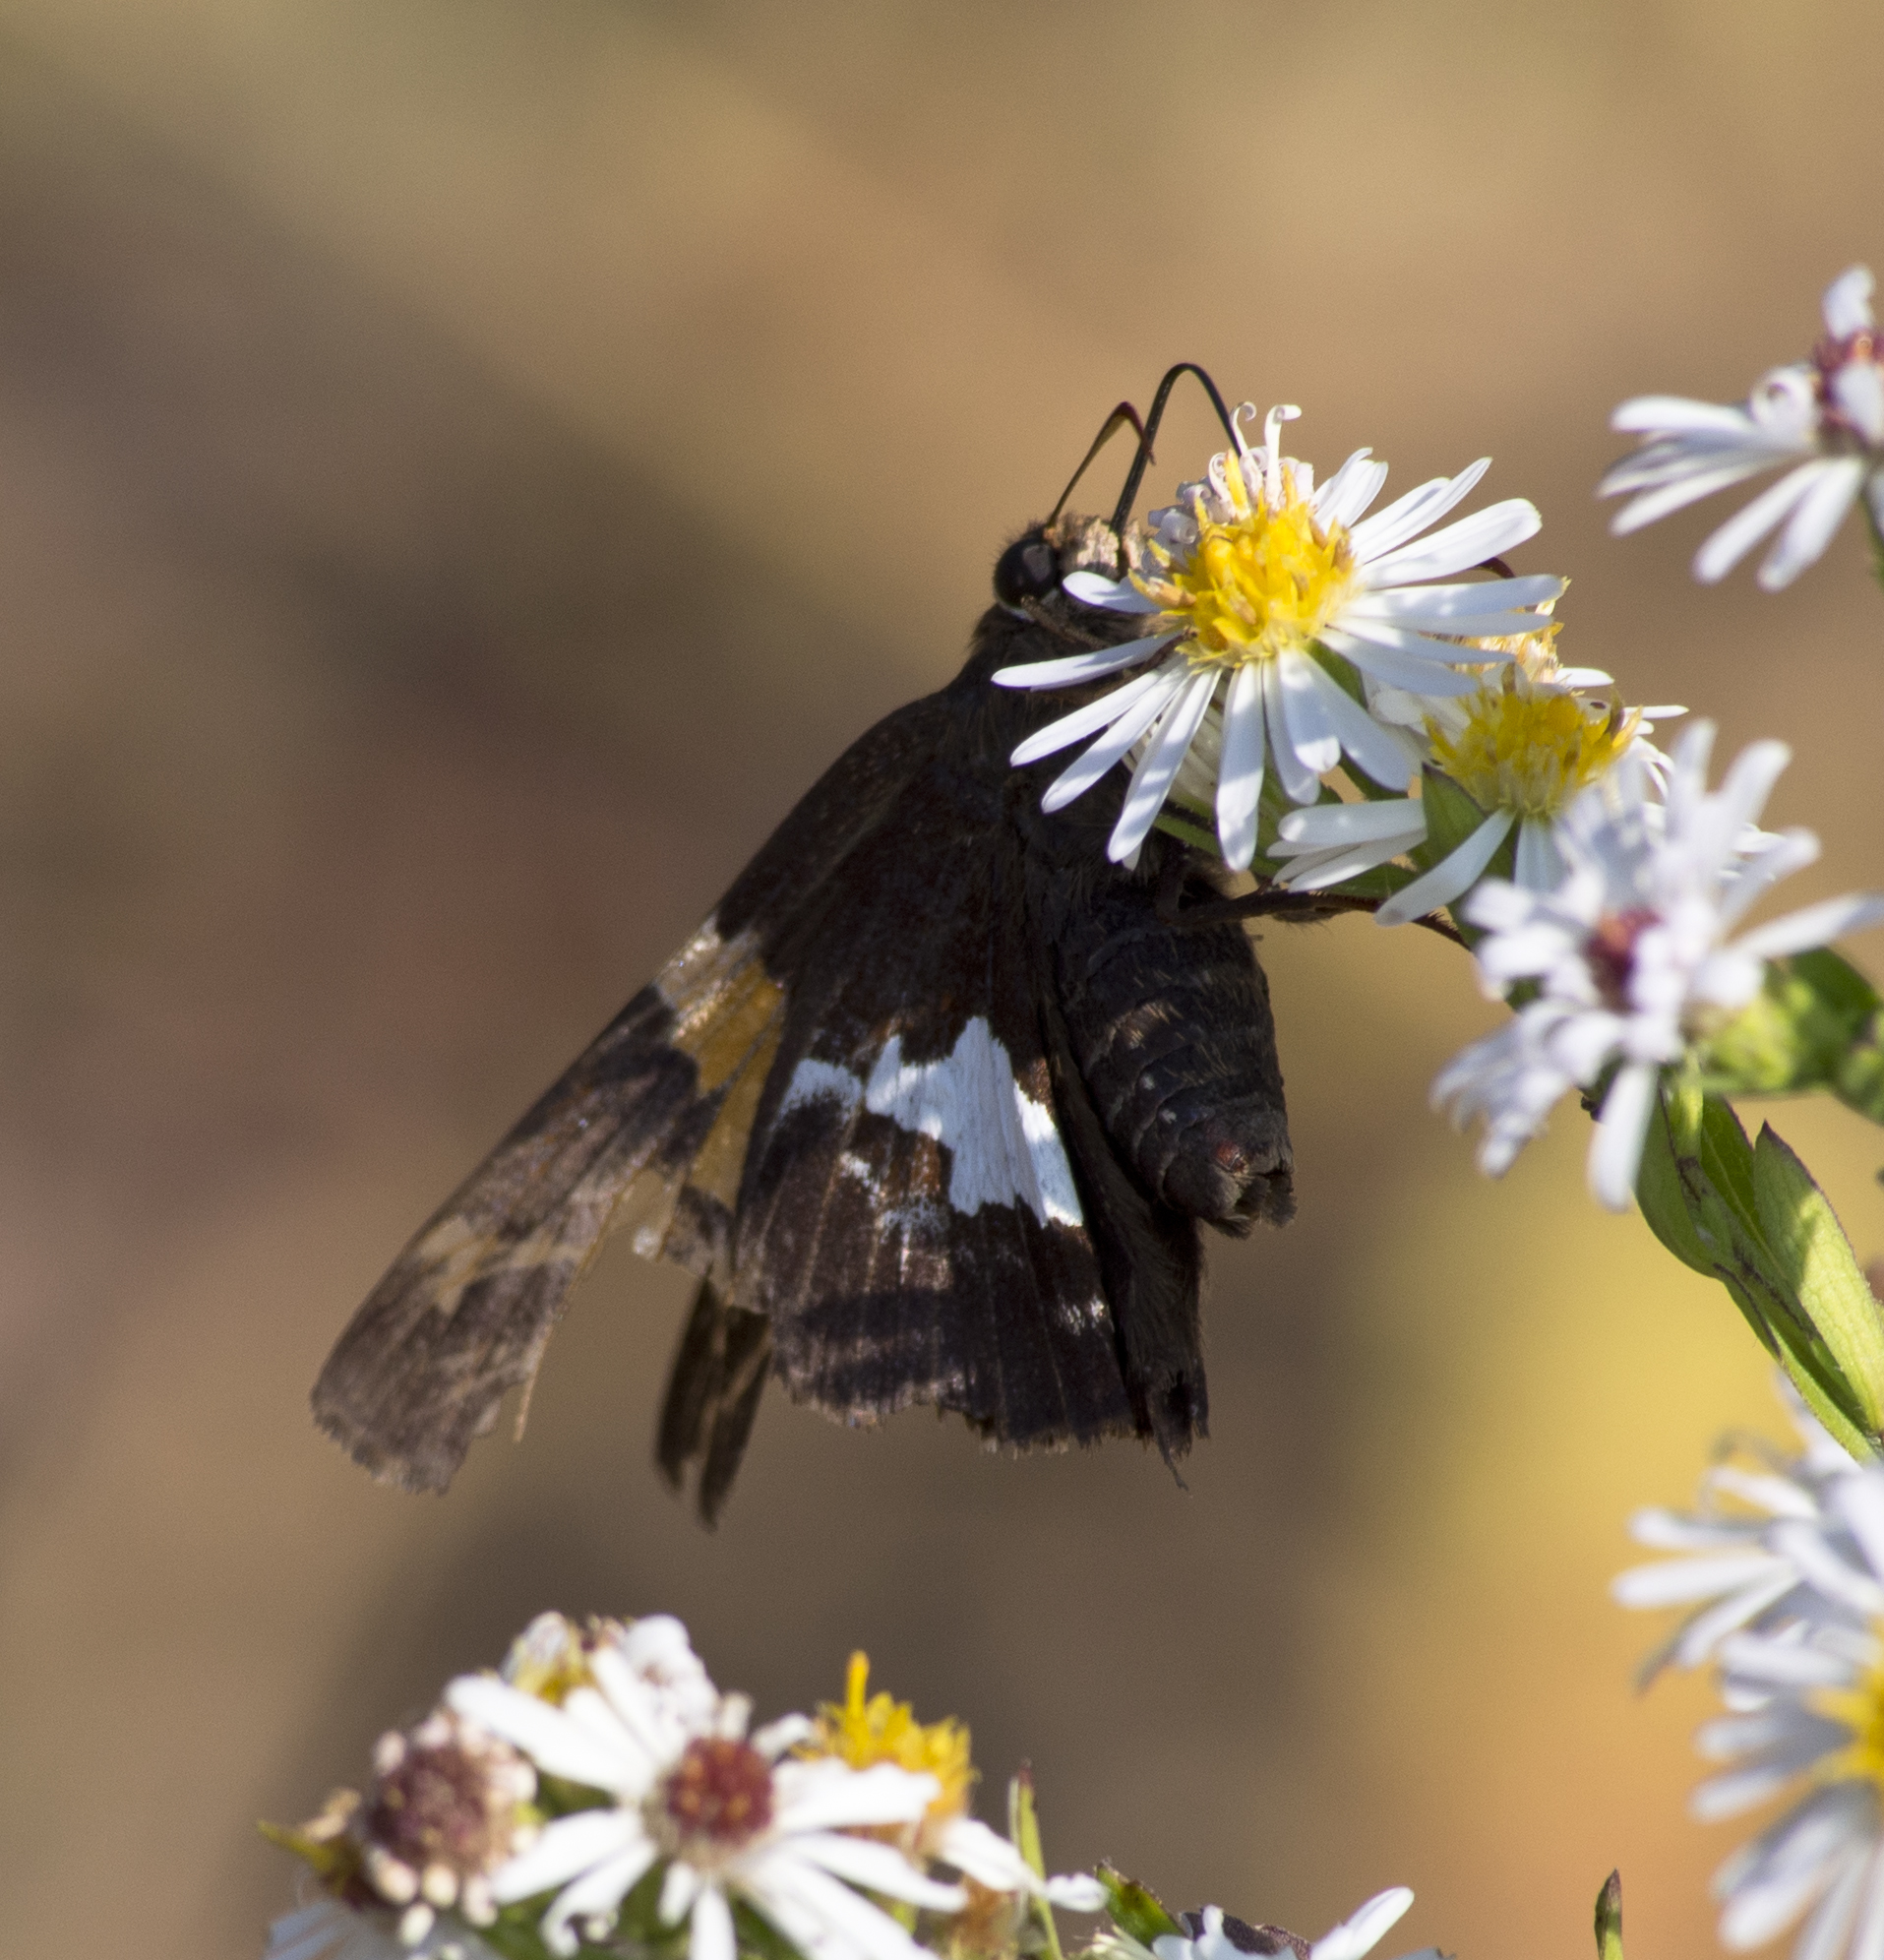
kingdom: Animalia
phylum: Arthropoda
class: Insecta
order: Lepidoptera
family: Hesperiidae
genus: Epargyreus
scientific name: Epargyreus clarus
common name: Silver-spotted skipper
